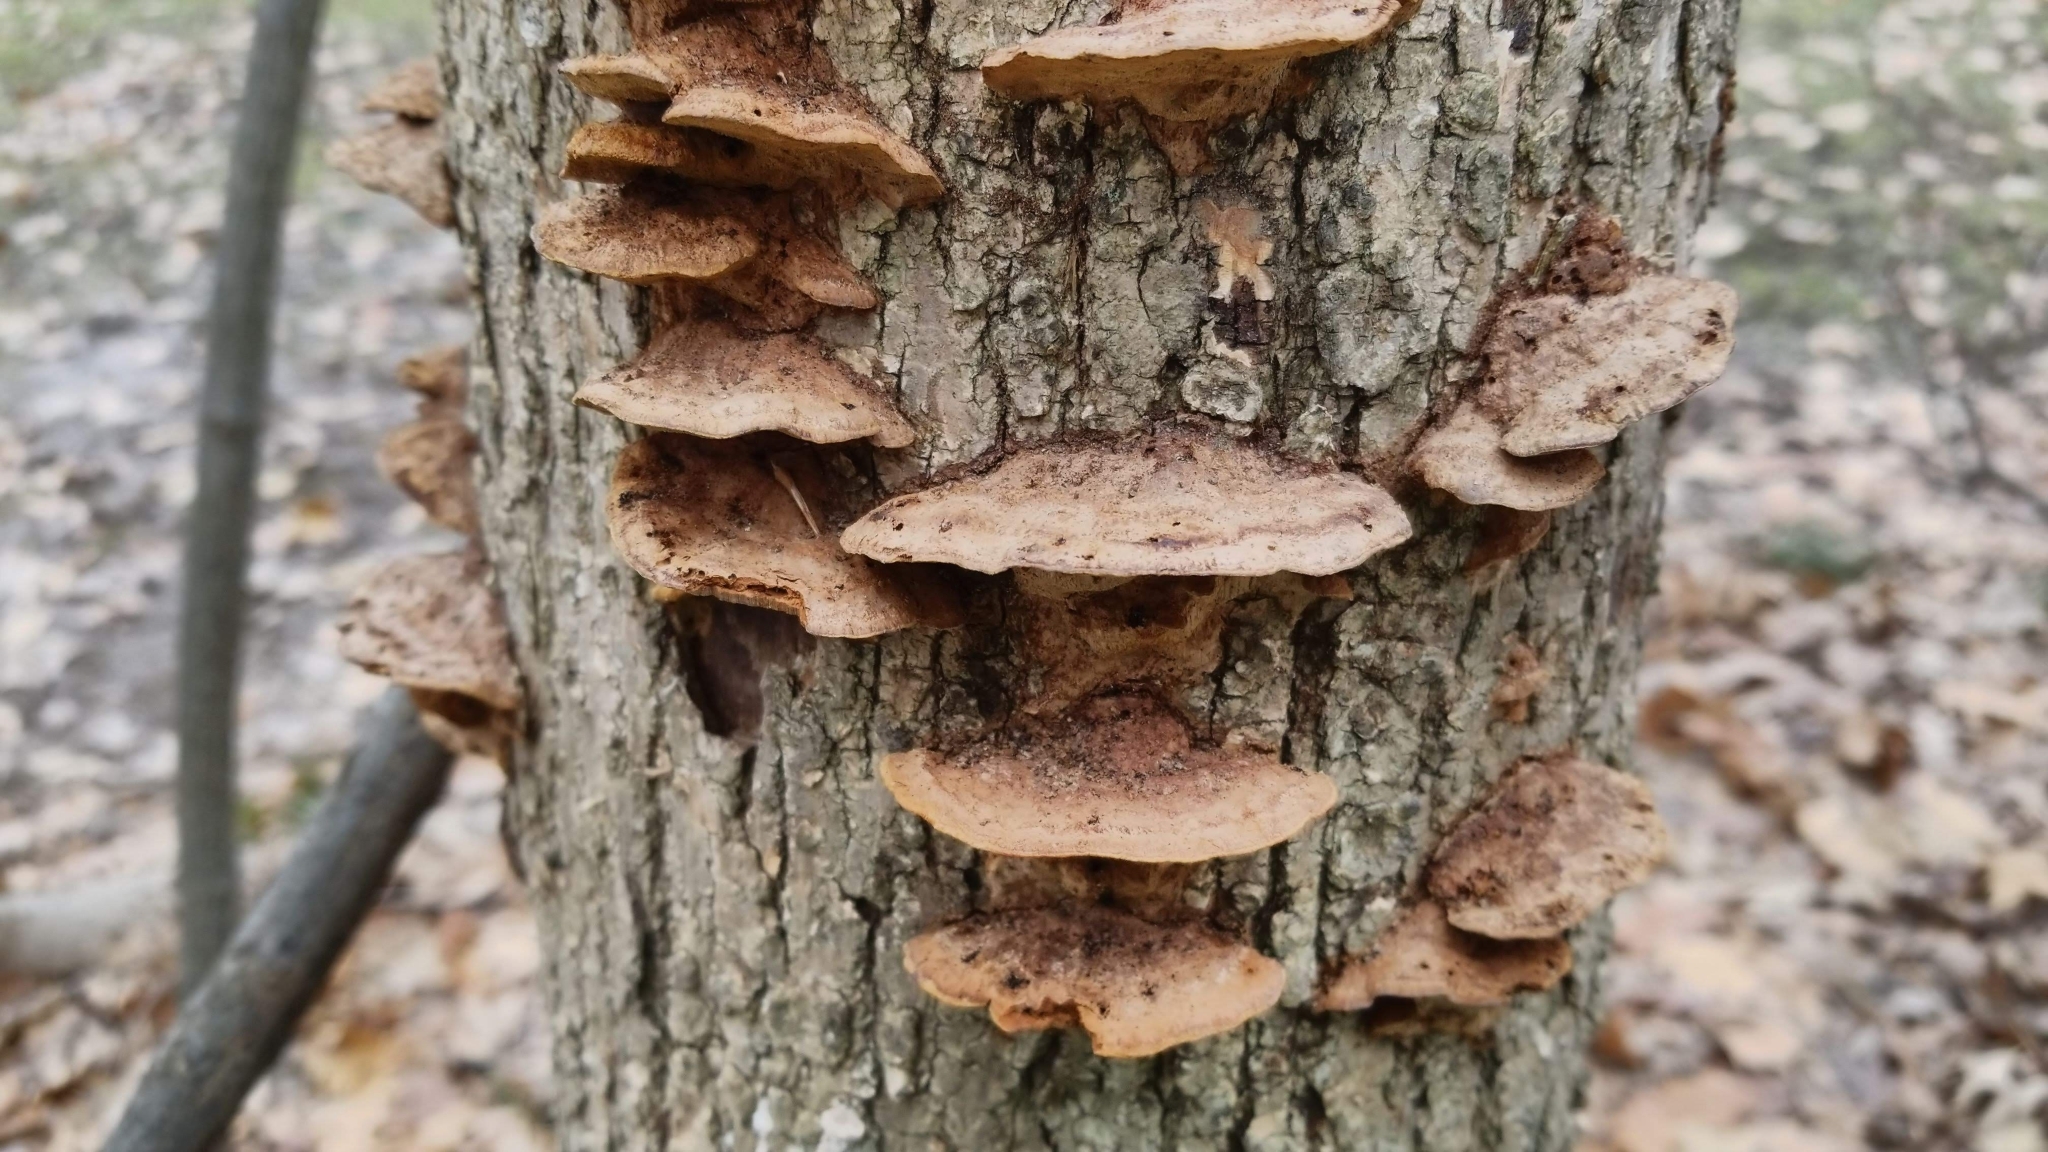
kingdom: Fungi
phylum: Basidiomycota
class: Agaricomycetes
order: Hymenochaetales
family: Hymenochaetaceae
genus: Phellinus
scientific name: Phellinus gilvus
